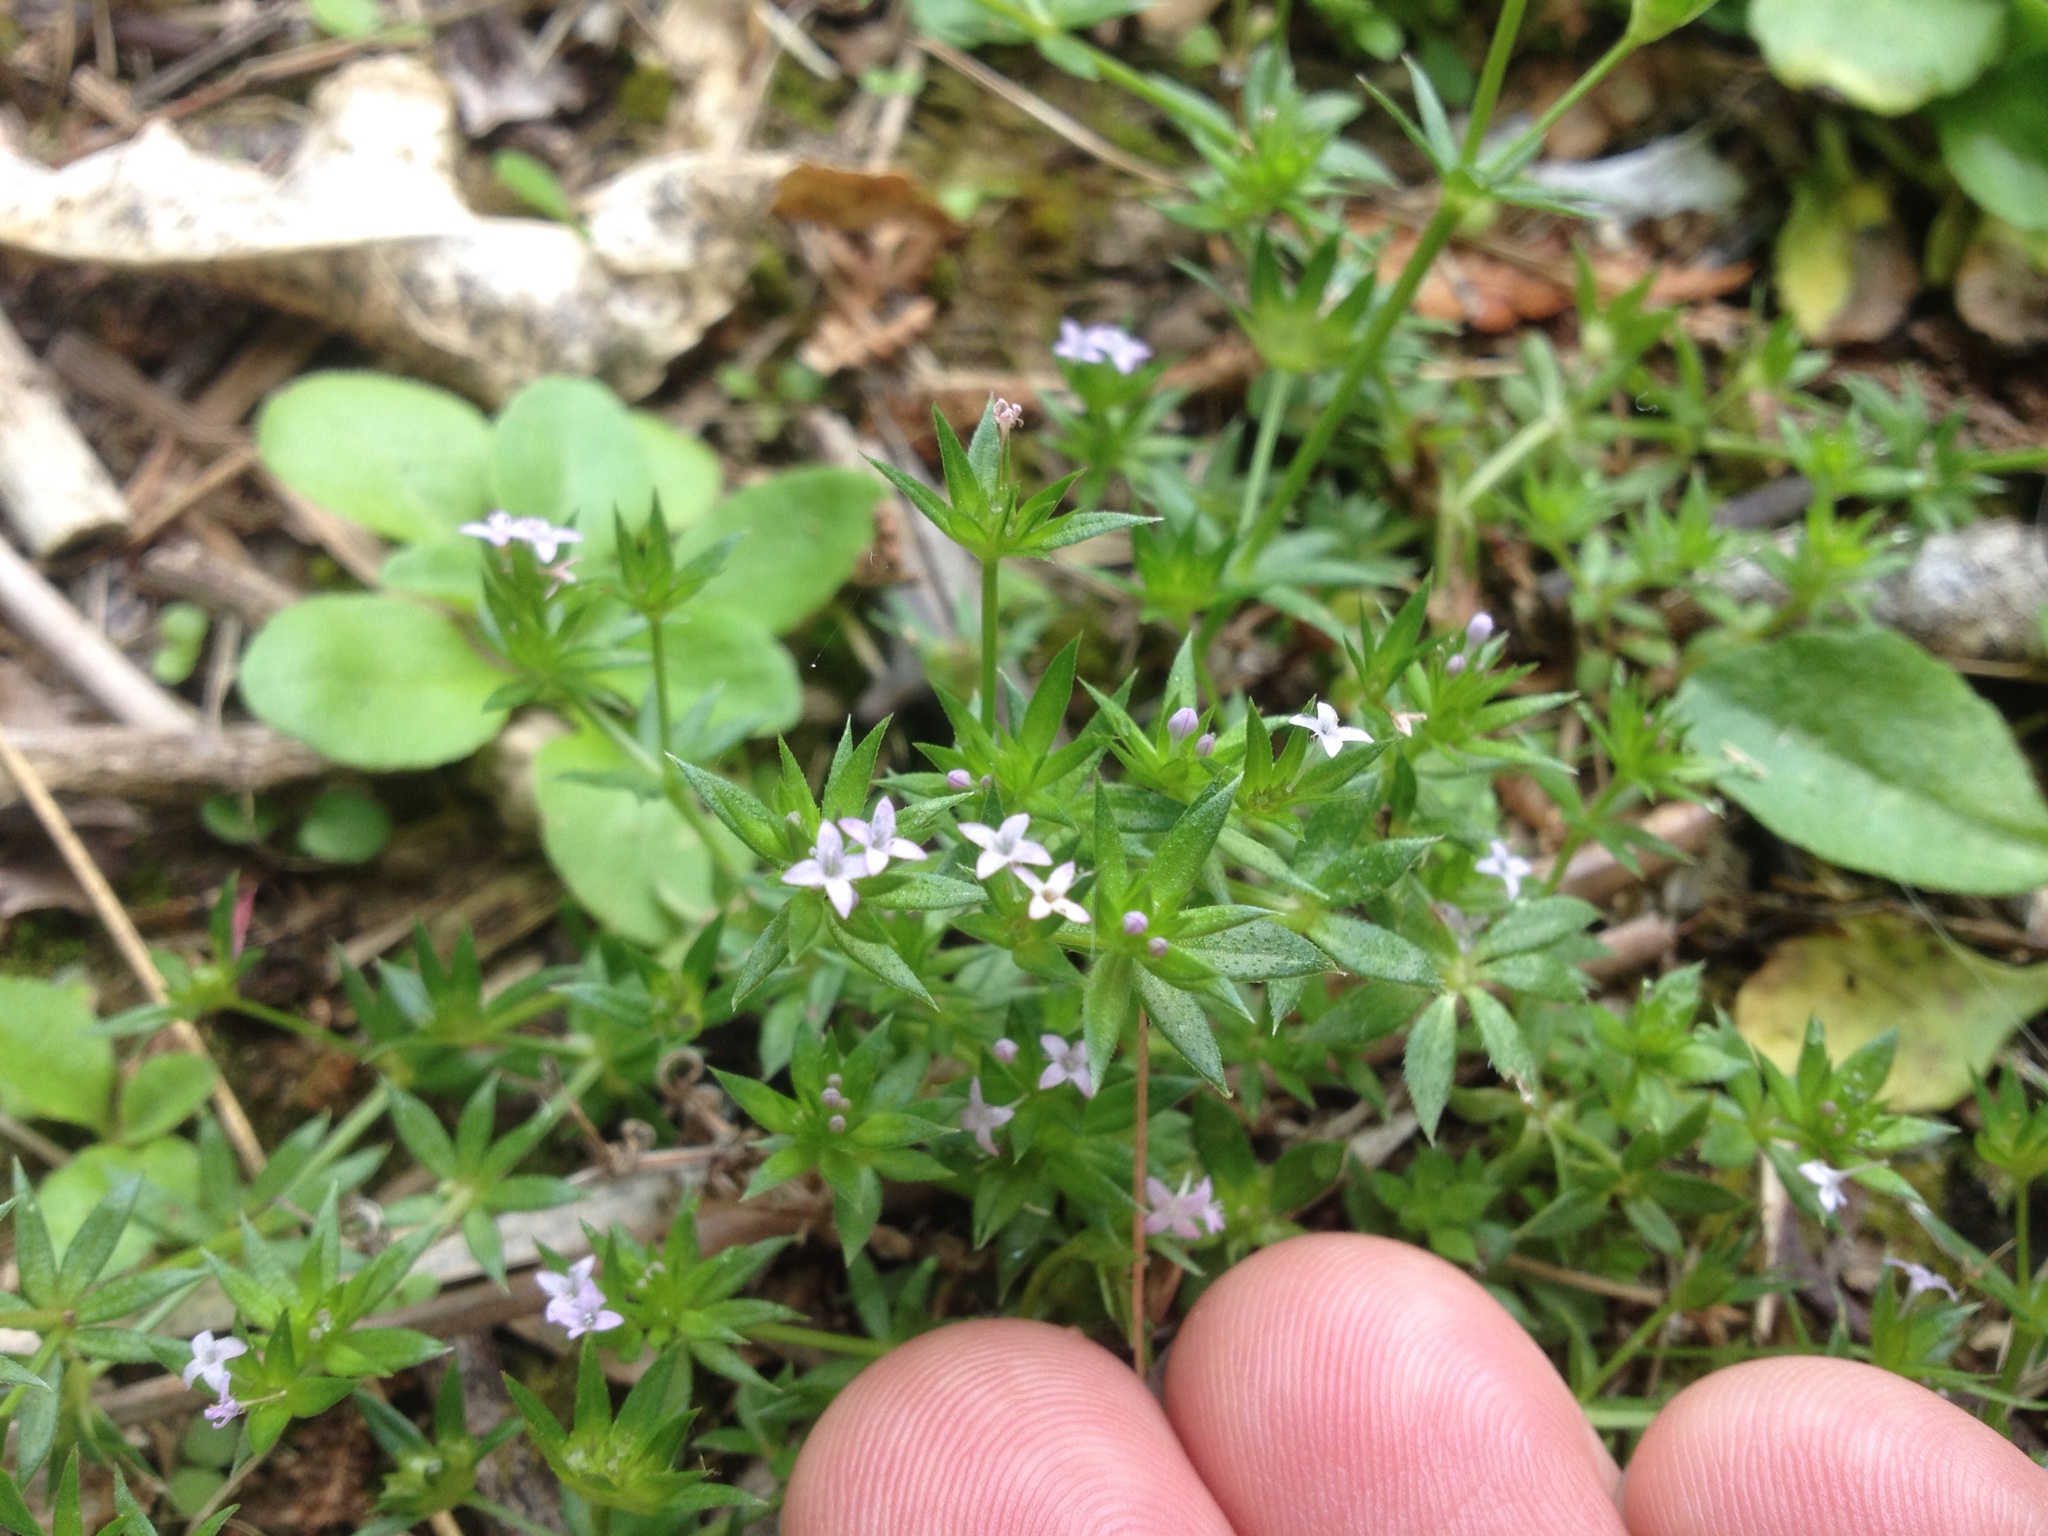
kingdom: Plantae
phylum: Tracheophyta
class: Magnoliopsida
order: Gentianales
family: Rubiaceae
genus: Sherardia
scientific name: Sherardia arvensis
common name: Field madder
